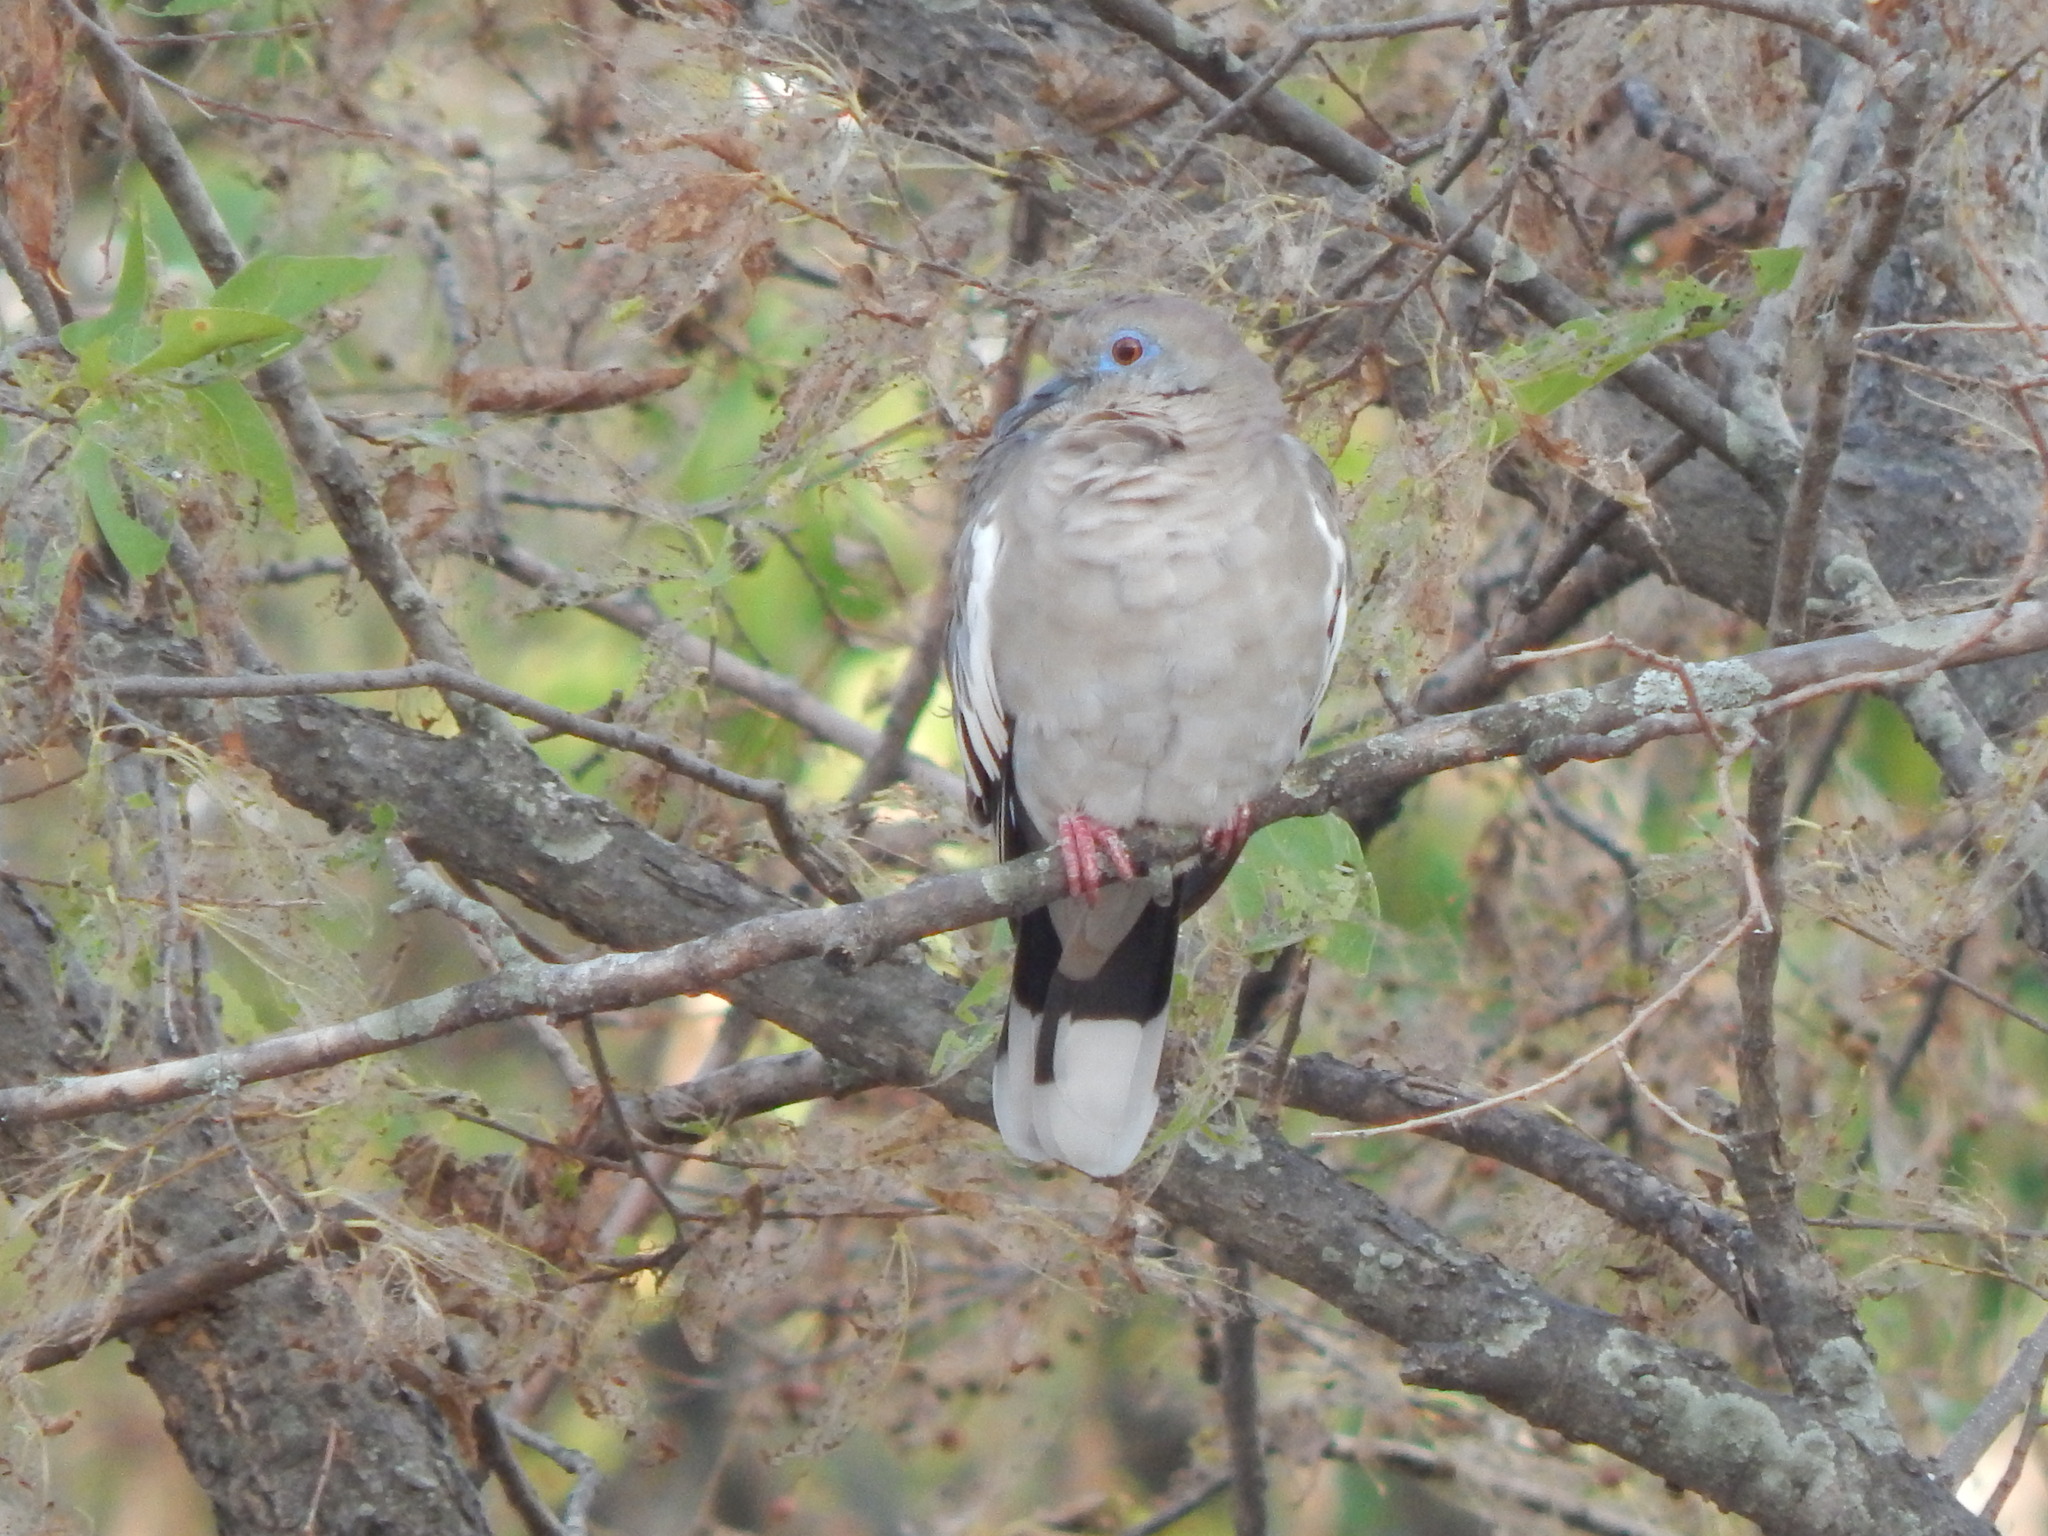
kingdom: Animalia
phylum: Chordata
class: Aves
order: Columbiformes
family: Columbidae
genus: Zenaida
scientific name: Zenaida asiatica
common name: White-winged dove
